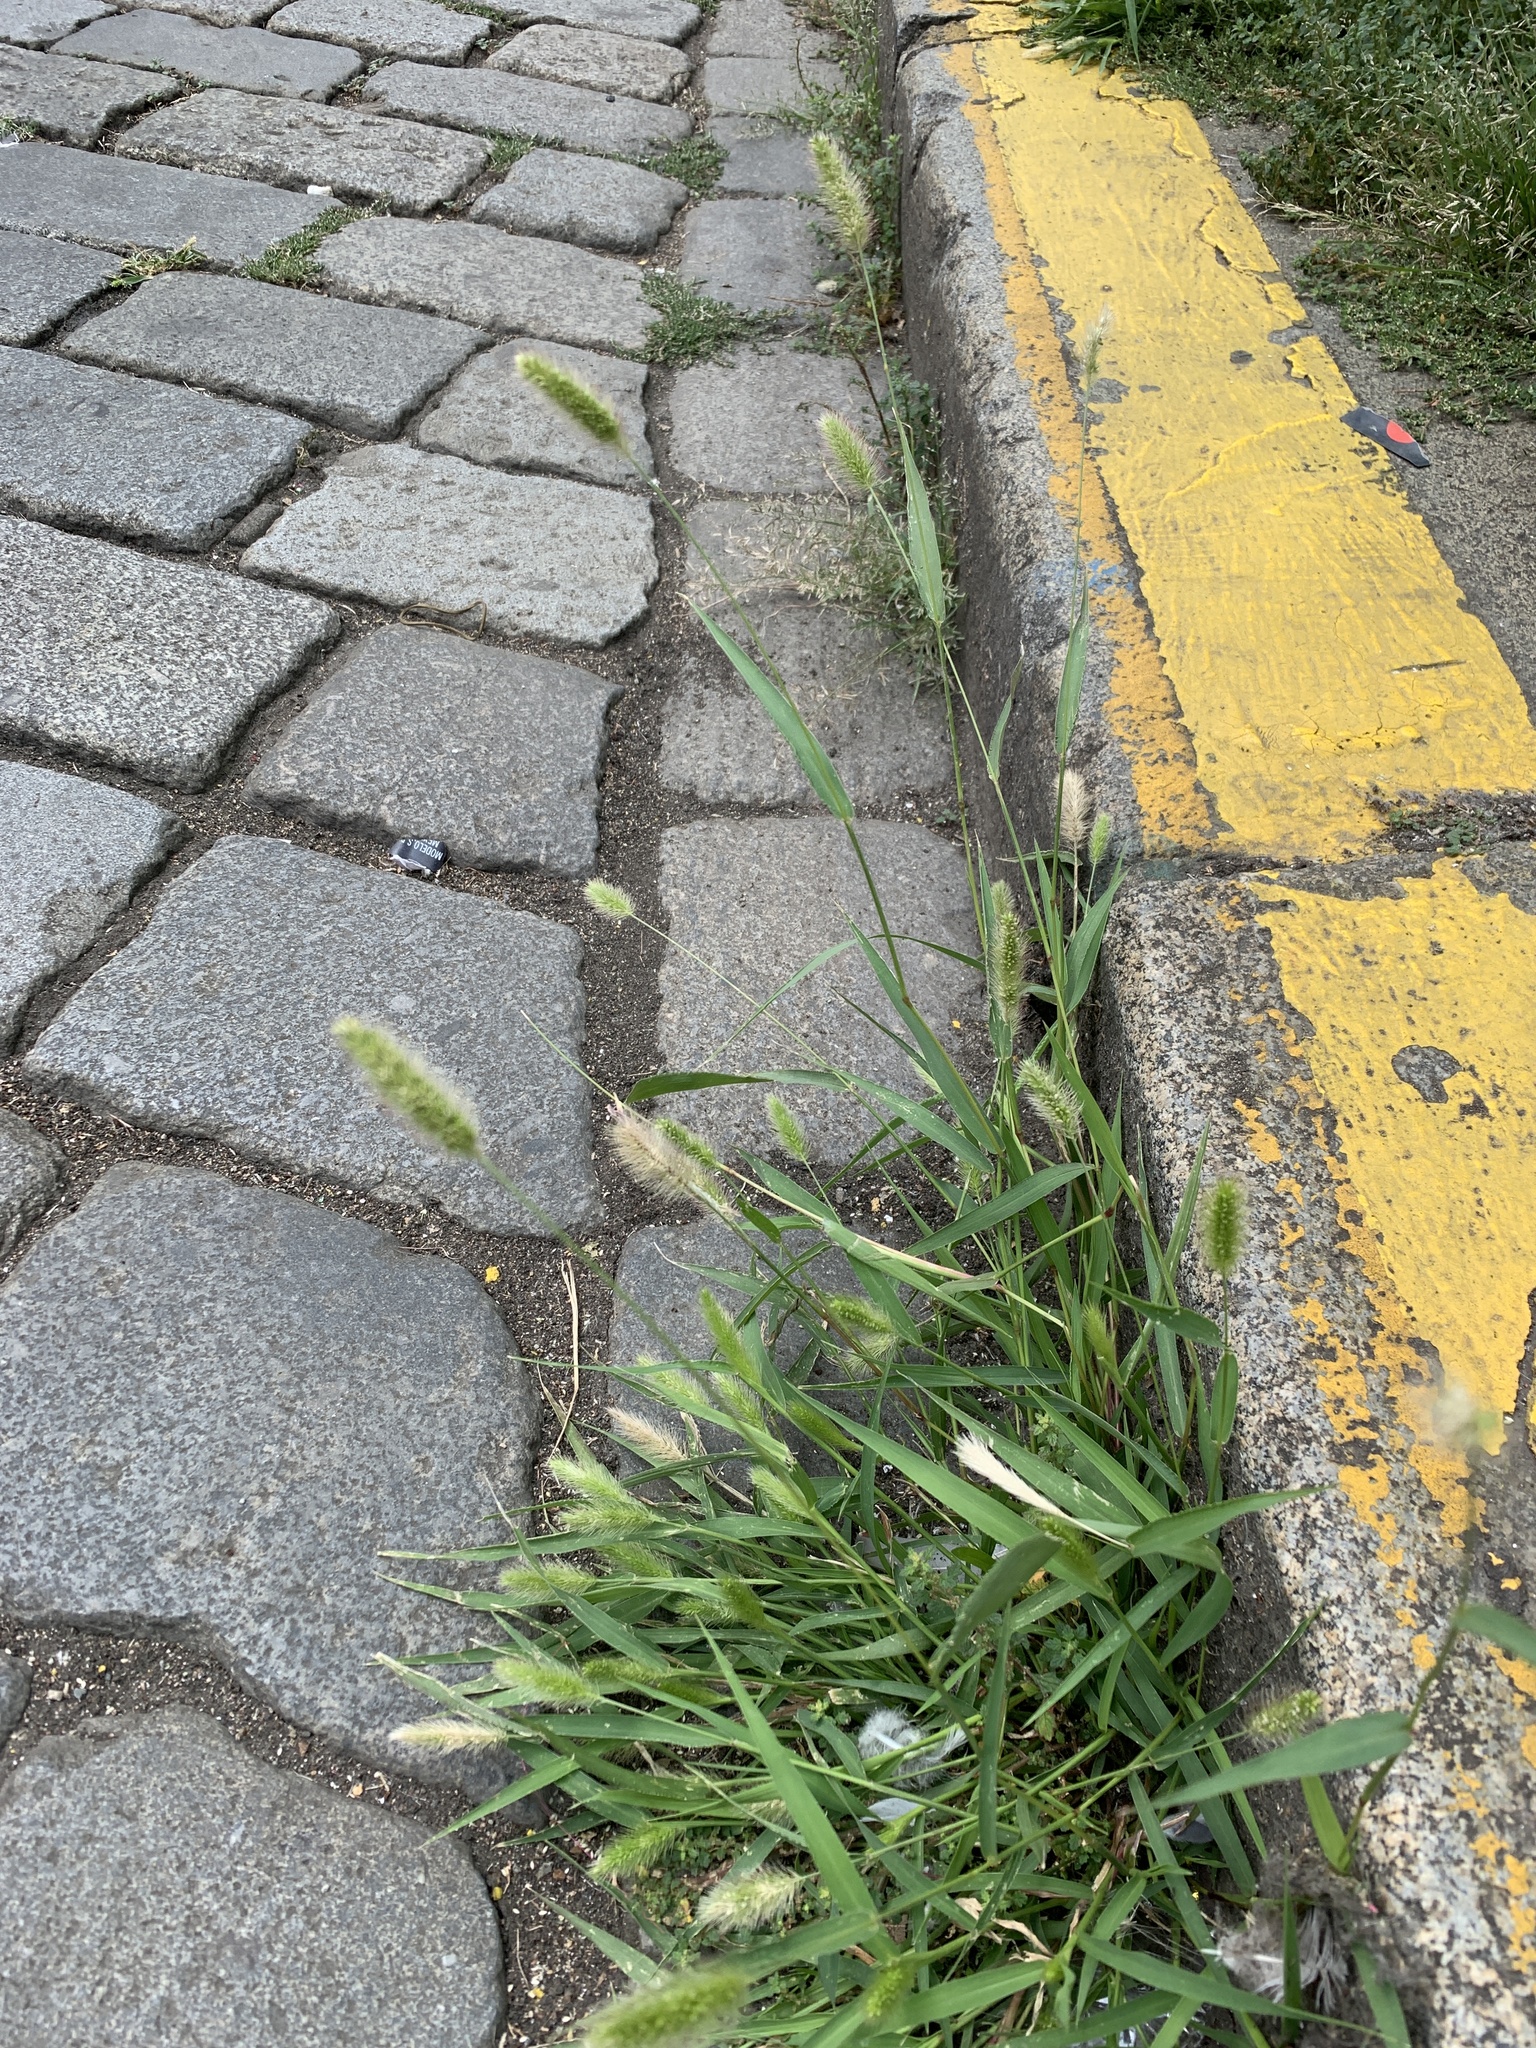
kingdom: Plantae
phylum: Tracheophyta
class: Liliopsida
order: Poales
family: Poaceae
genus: Setaria
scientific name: Setaria viridis
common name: Green bristlegrass
